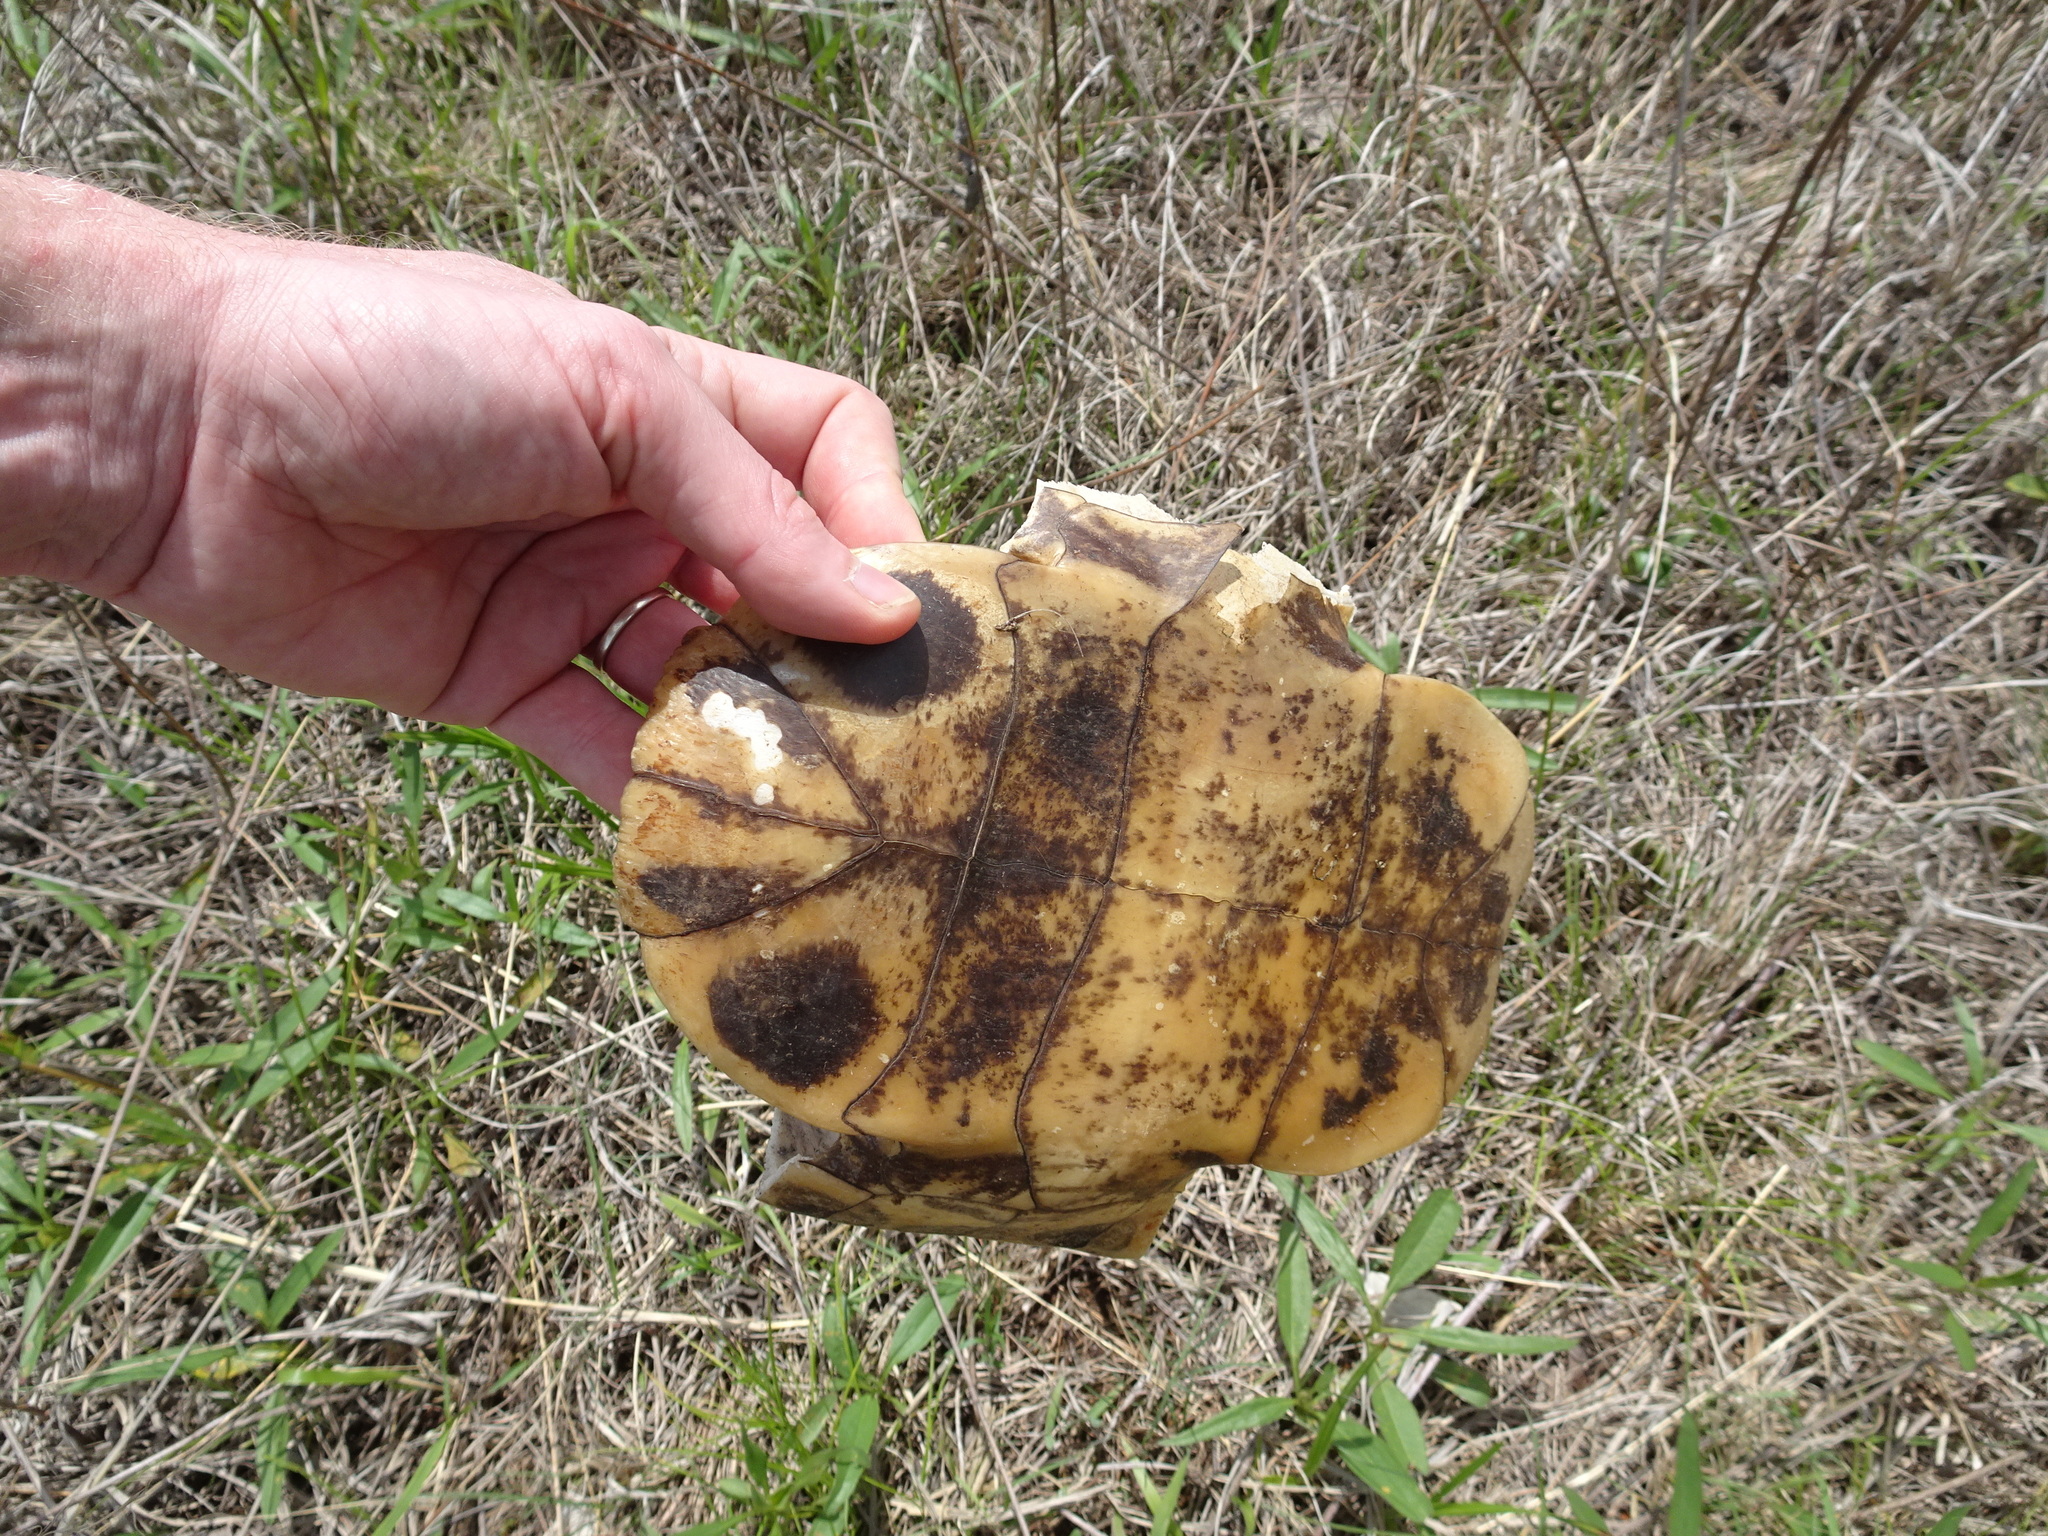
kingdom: Animalia
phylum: Chordata
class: Testudines
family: Emydidae
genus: Trachemys
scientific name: Trachemys scripta
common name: Slider
